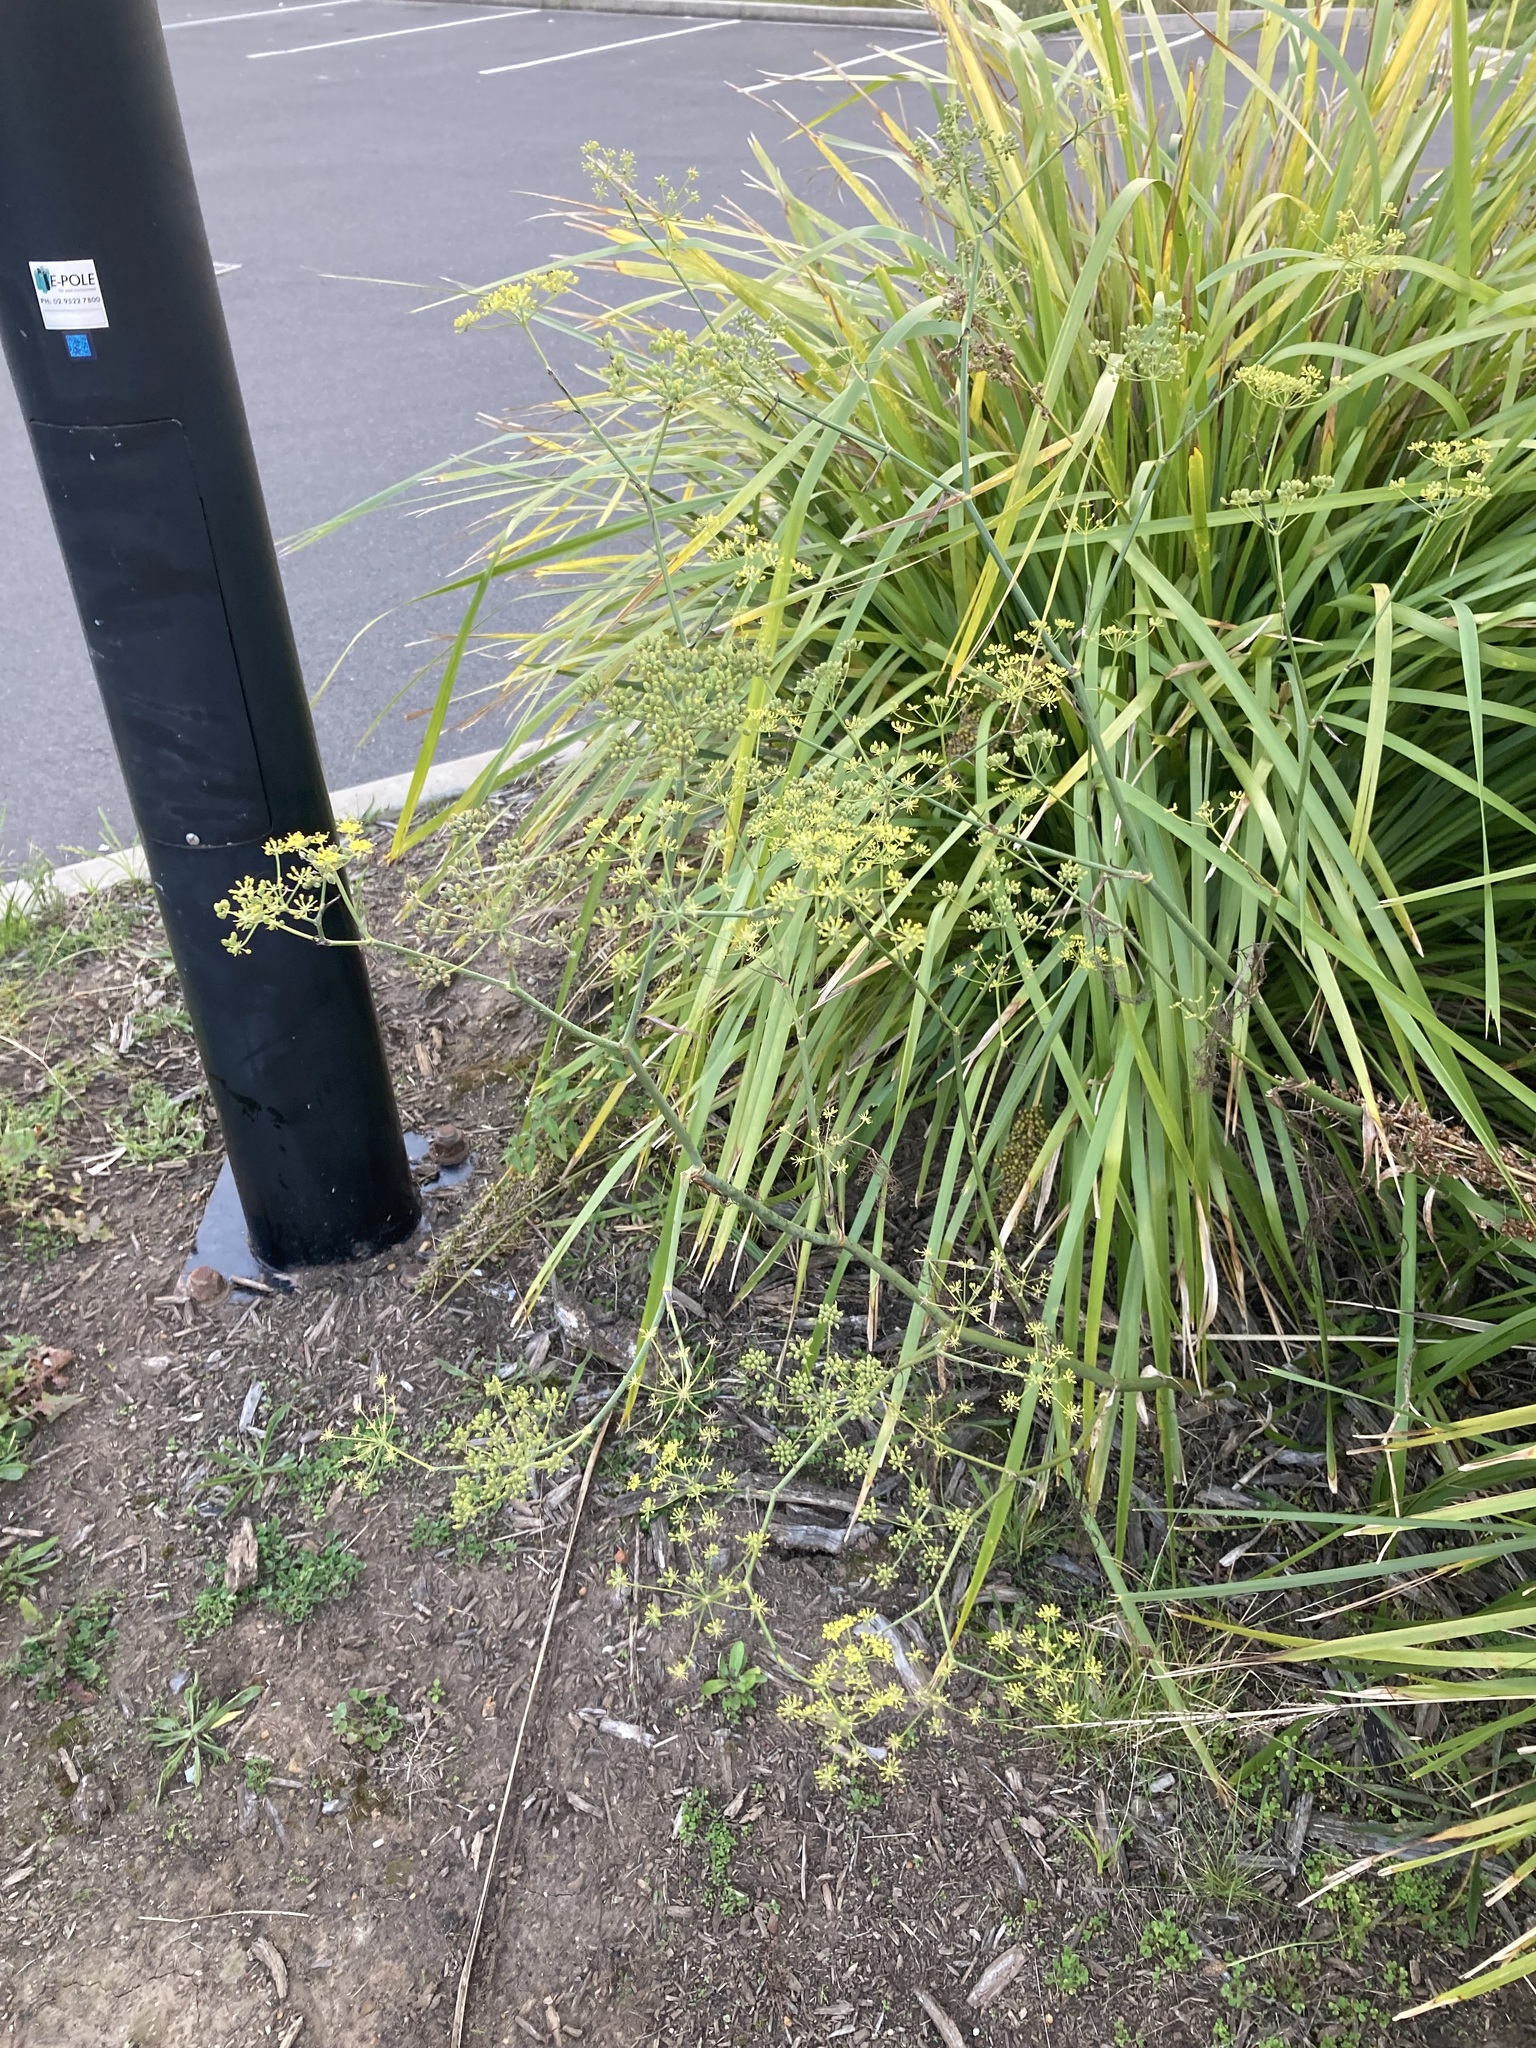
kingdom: Plantae
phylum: Tracheophyta
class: Magnoliopsida
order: Apiales
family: Apiaceae
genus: Foeniculum
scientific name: Foeniculum vulgare
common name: Fennel
